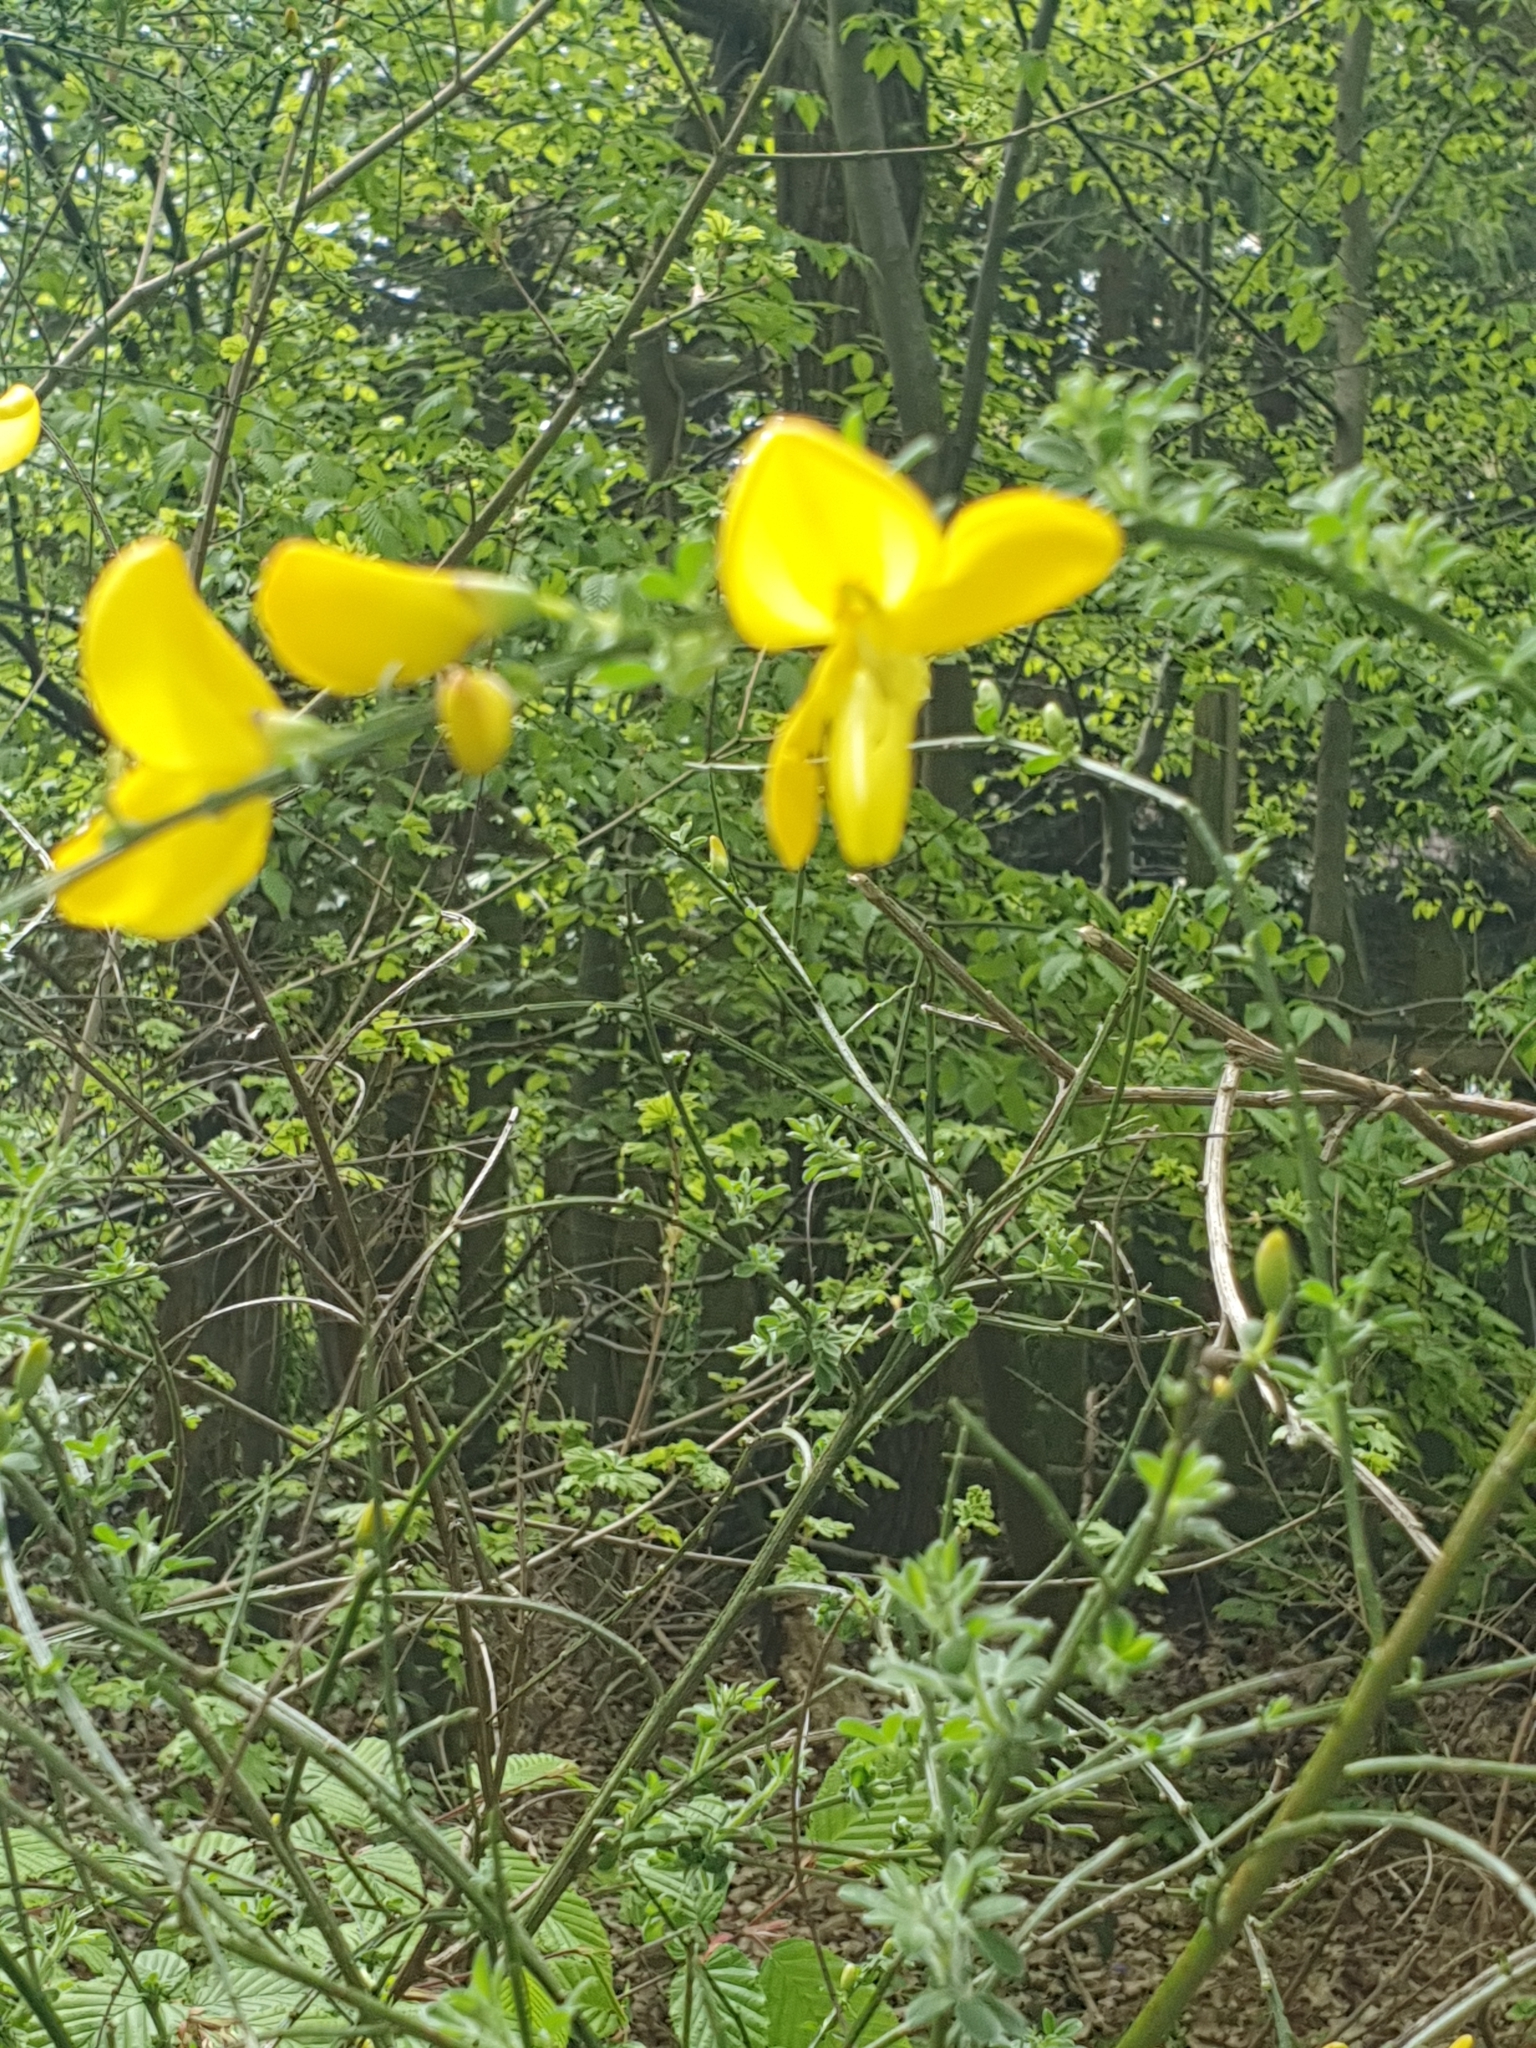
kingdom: Plantae
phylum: Tracheophyta
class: Magnoliopsida
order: Fabales
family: Fabaceae
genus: Cytisus
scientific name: Cytisus scoparius
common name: Scotch broom
